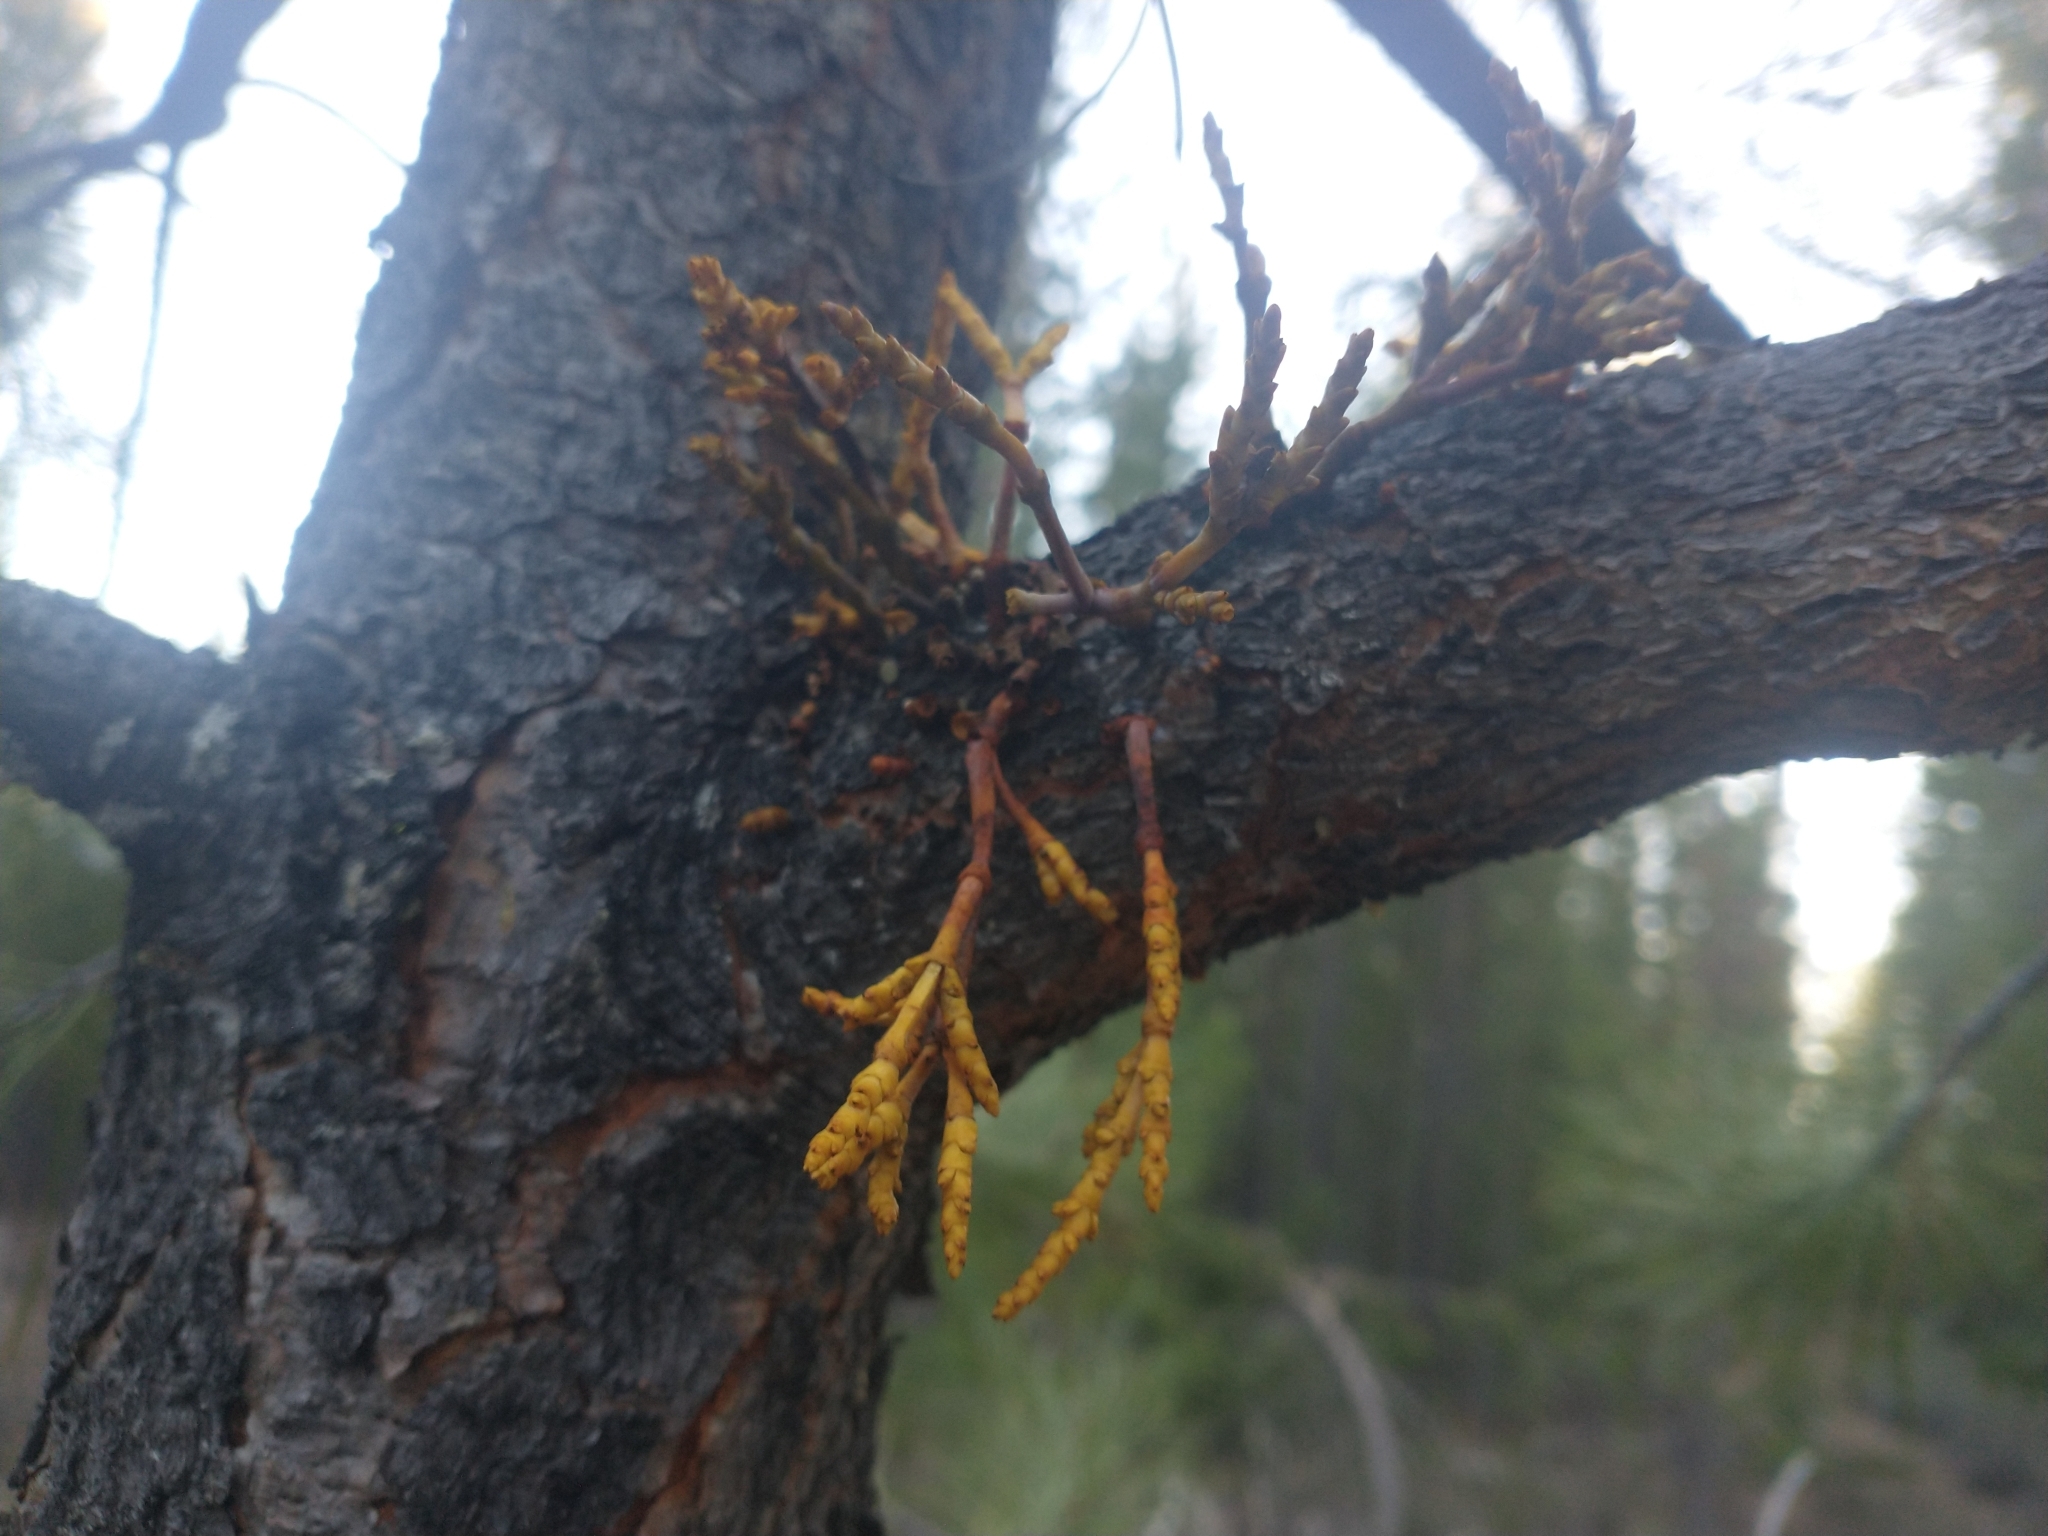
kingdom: Plantae
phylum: Tracheophyta
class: Magnoliopsida
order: Santalales
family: Viscaceae
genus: Arceuthobium
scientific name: Arceuthobium campylopodum
